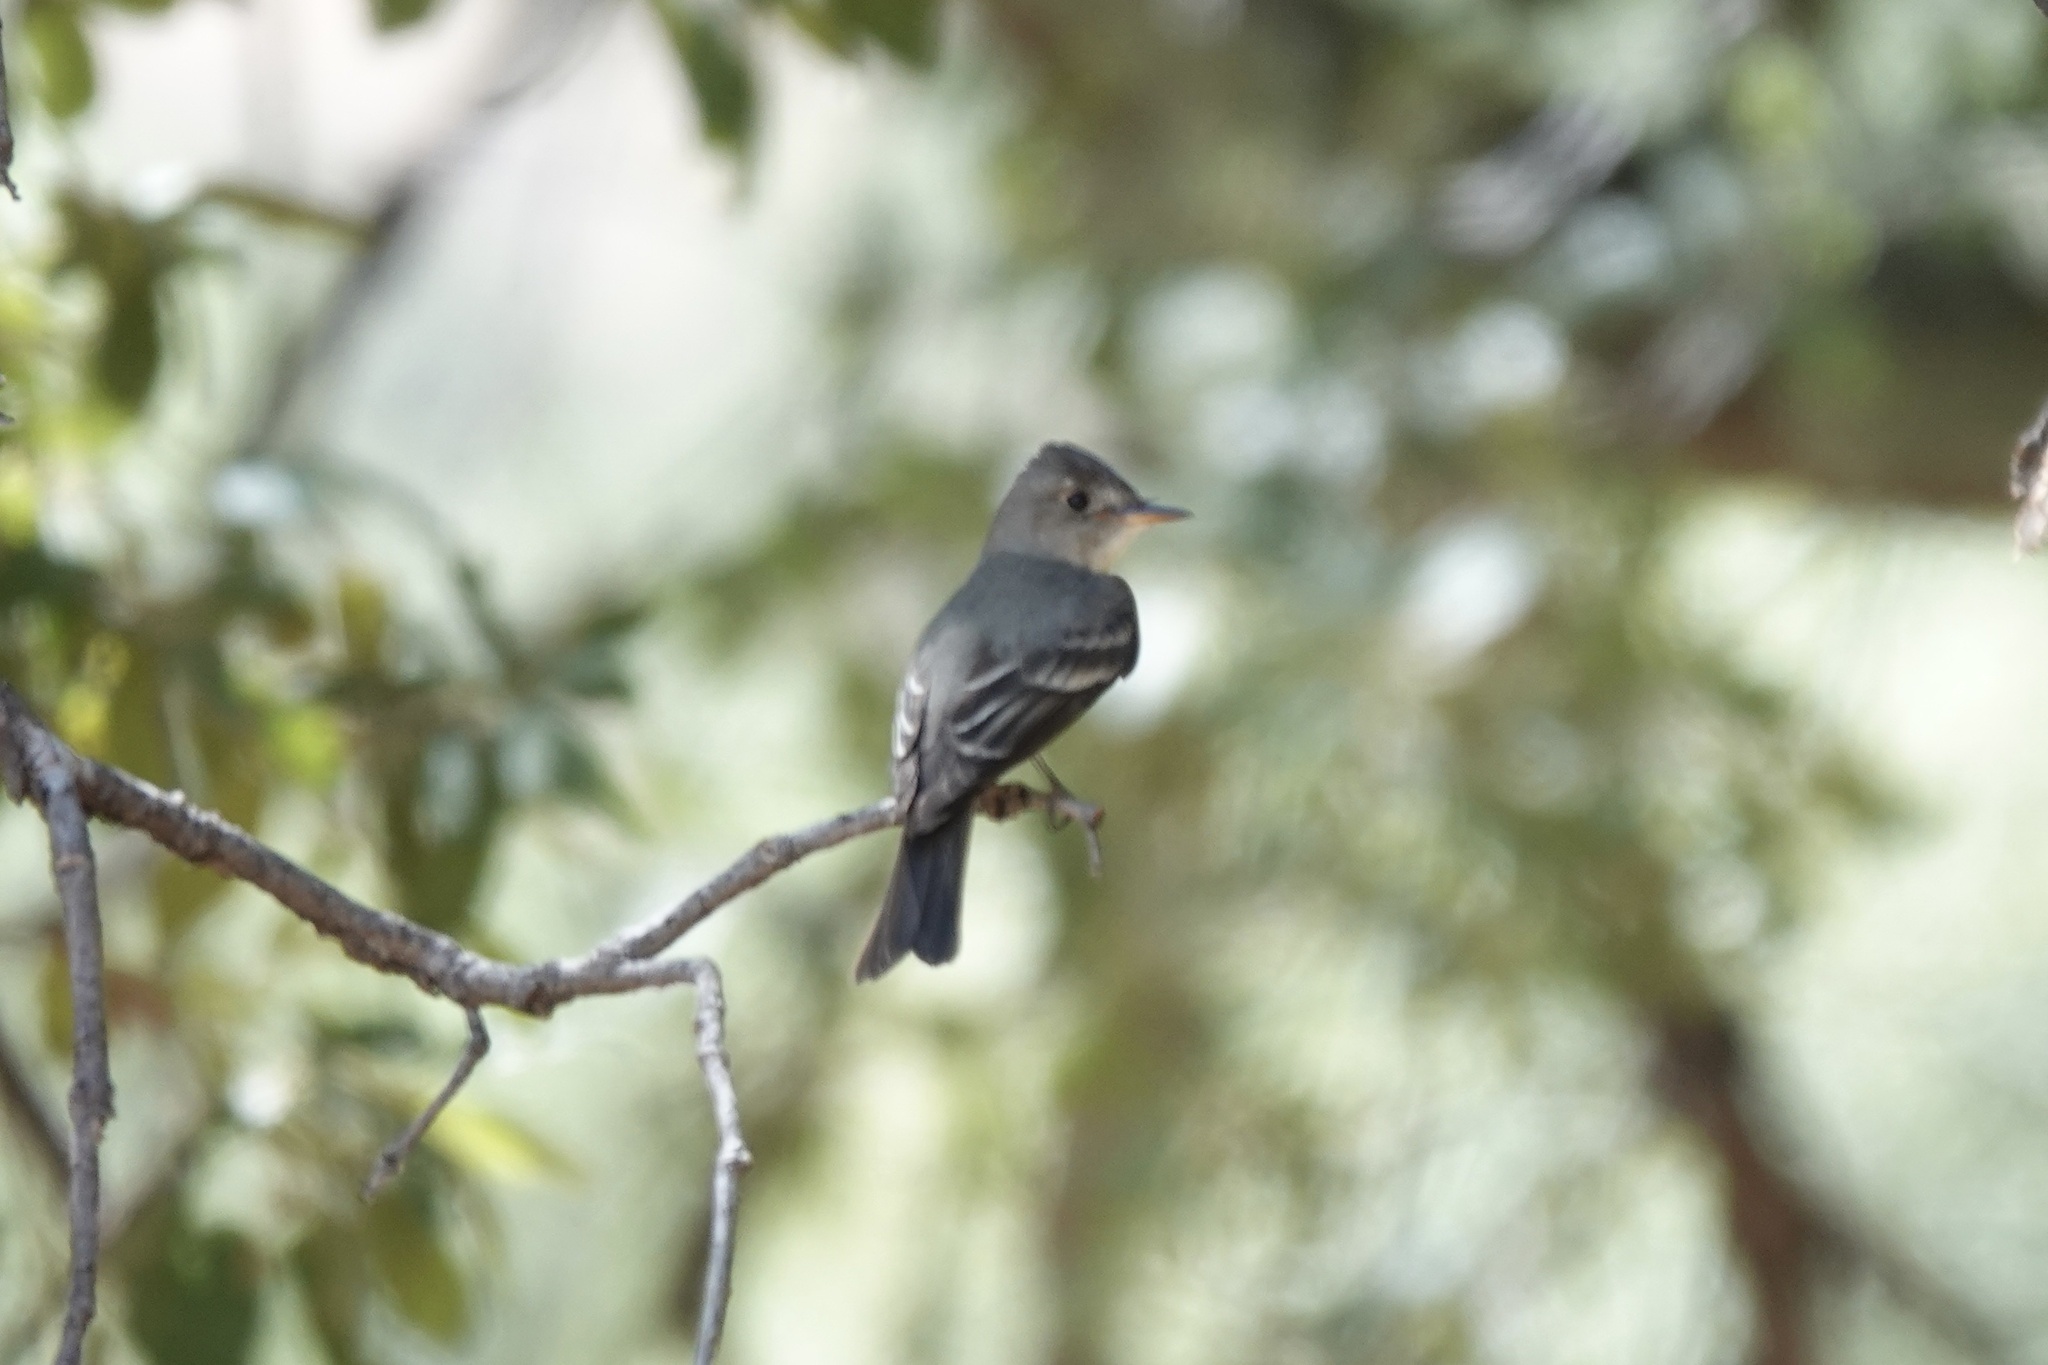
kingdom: Animalia
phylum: Chordata
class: Aves
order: Passeriformes
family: Tyrannidae
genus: Contopus
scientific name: Contopus sordidulus
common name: Western wood-pewee
